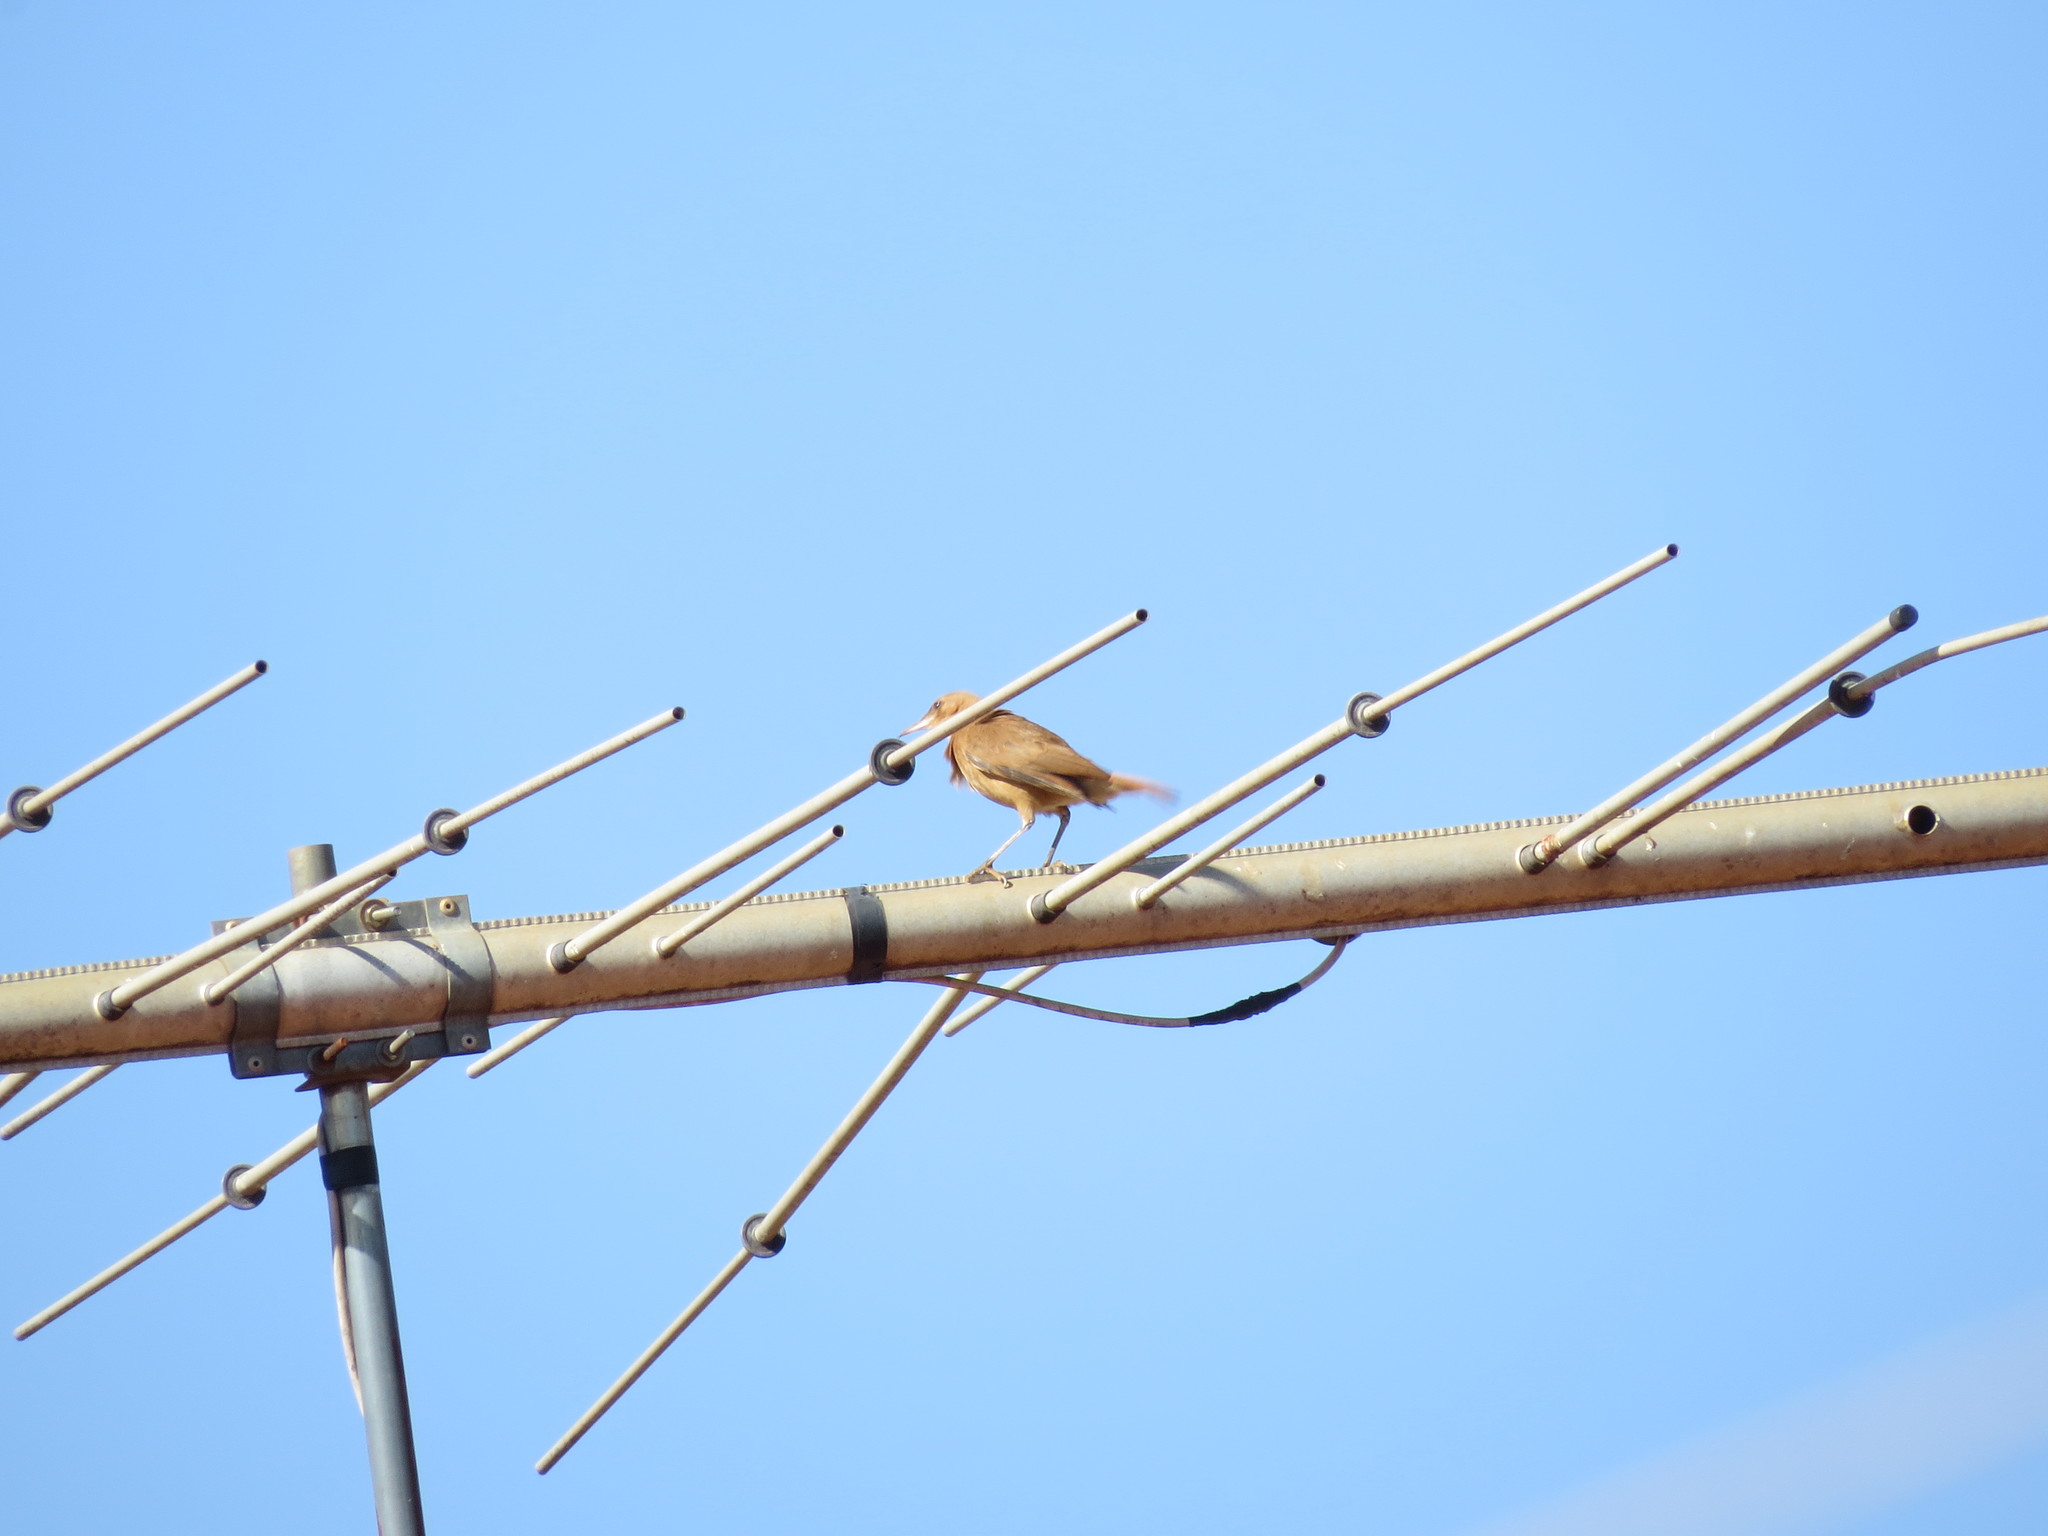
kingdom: Animalia
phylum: Chordata
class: Aves
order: Passeriformes
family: Furnariidae
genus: Furnarius
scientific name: Furnarius rufus
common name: Rufous hornero
